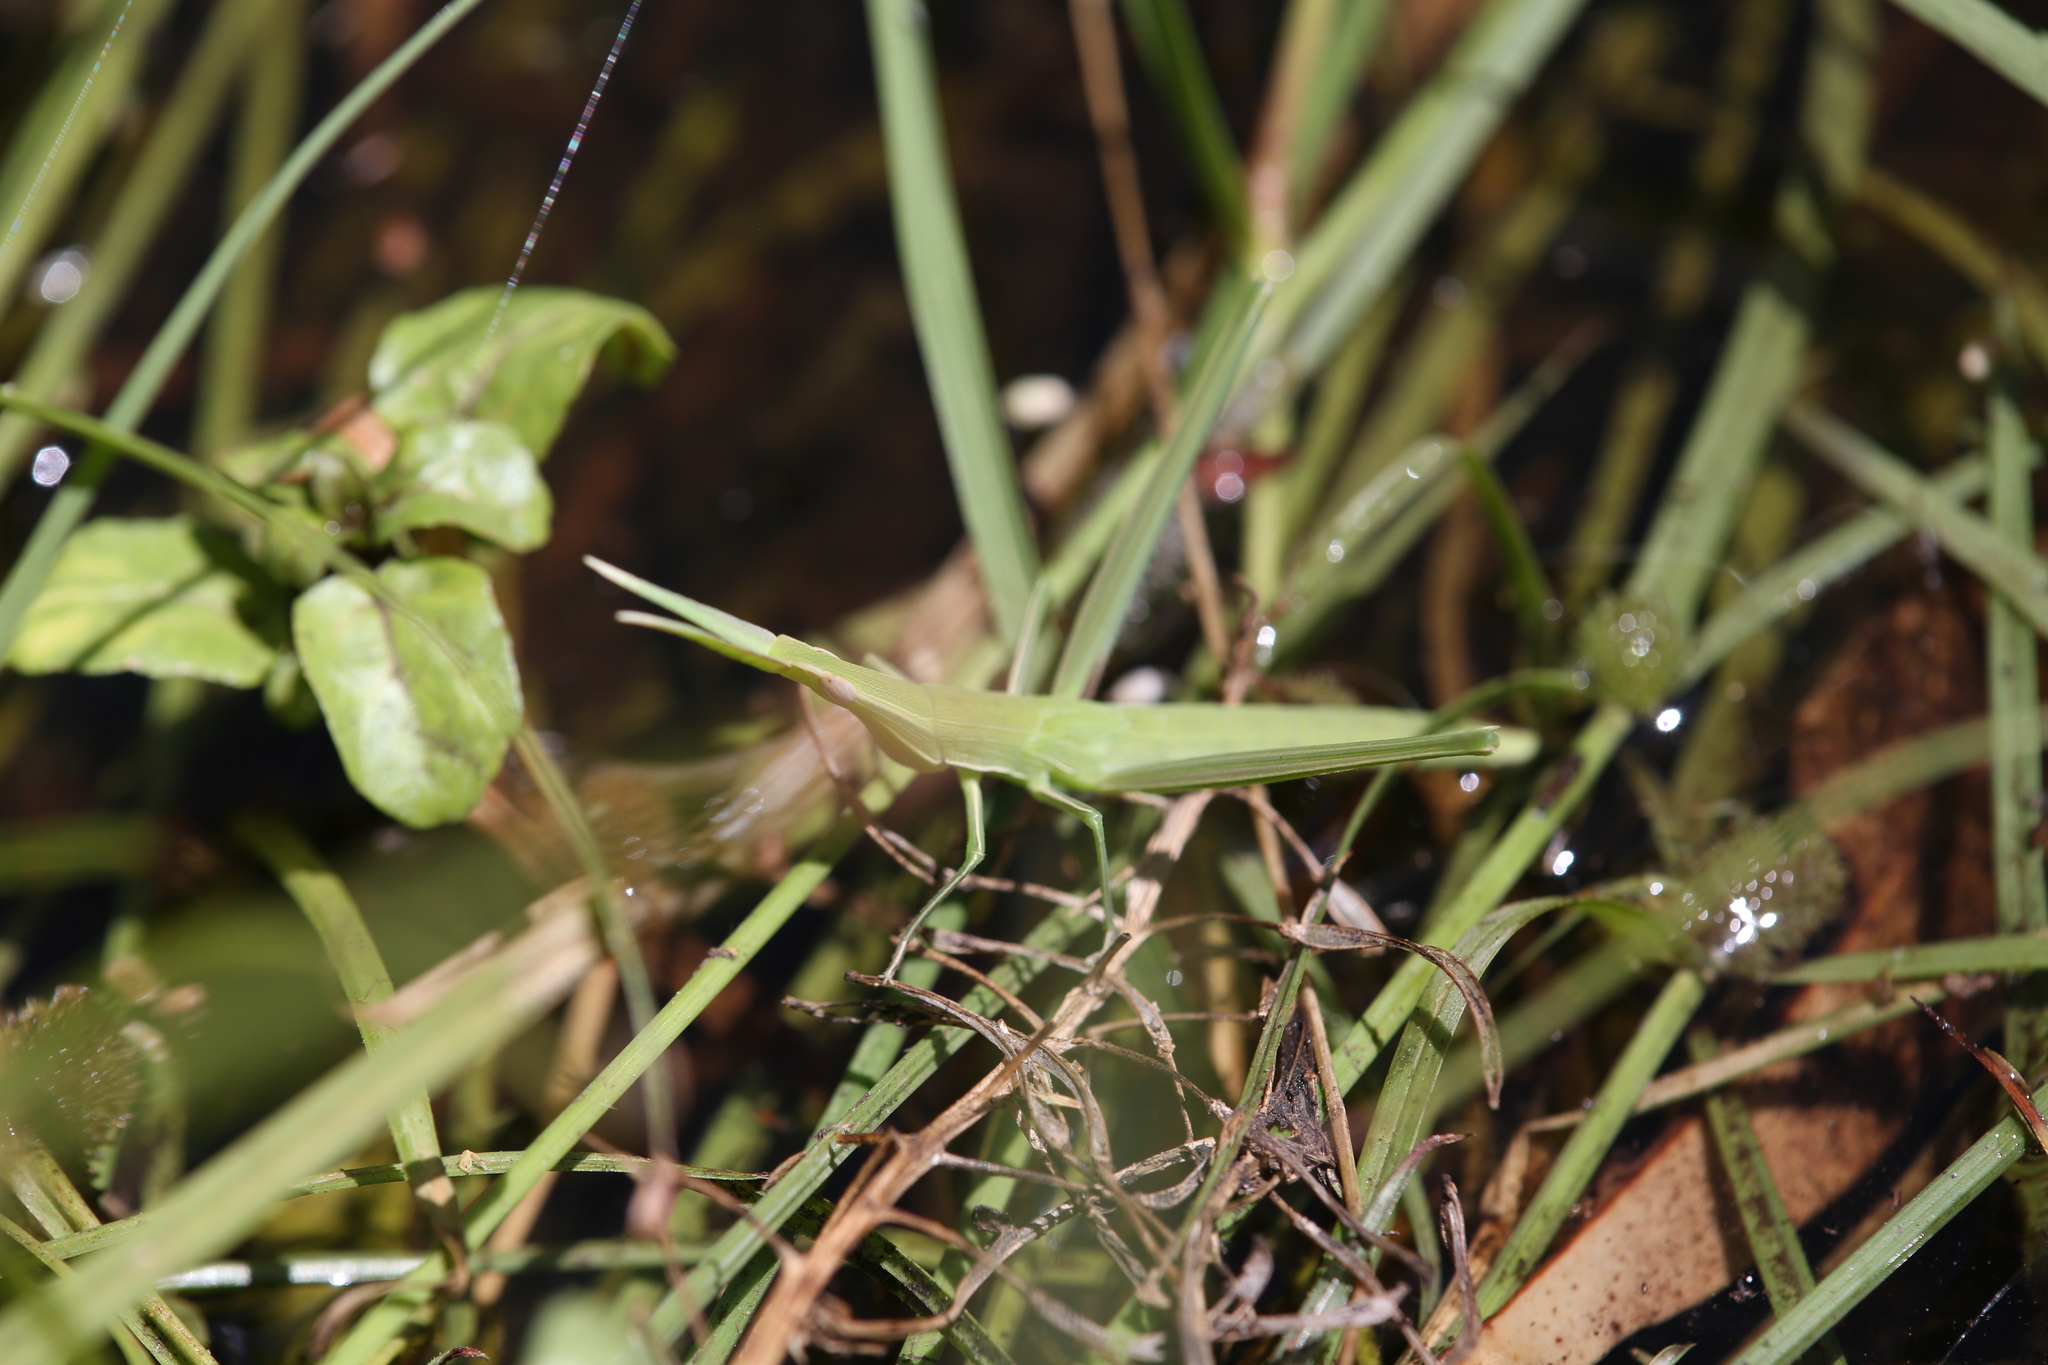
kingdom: Animalia
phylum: Arthropoda
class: Insecta
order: Orthoptera
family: Acrididae
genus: Acrida
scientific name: Acrida conica
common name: Giant green slantface
